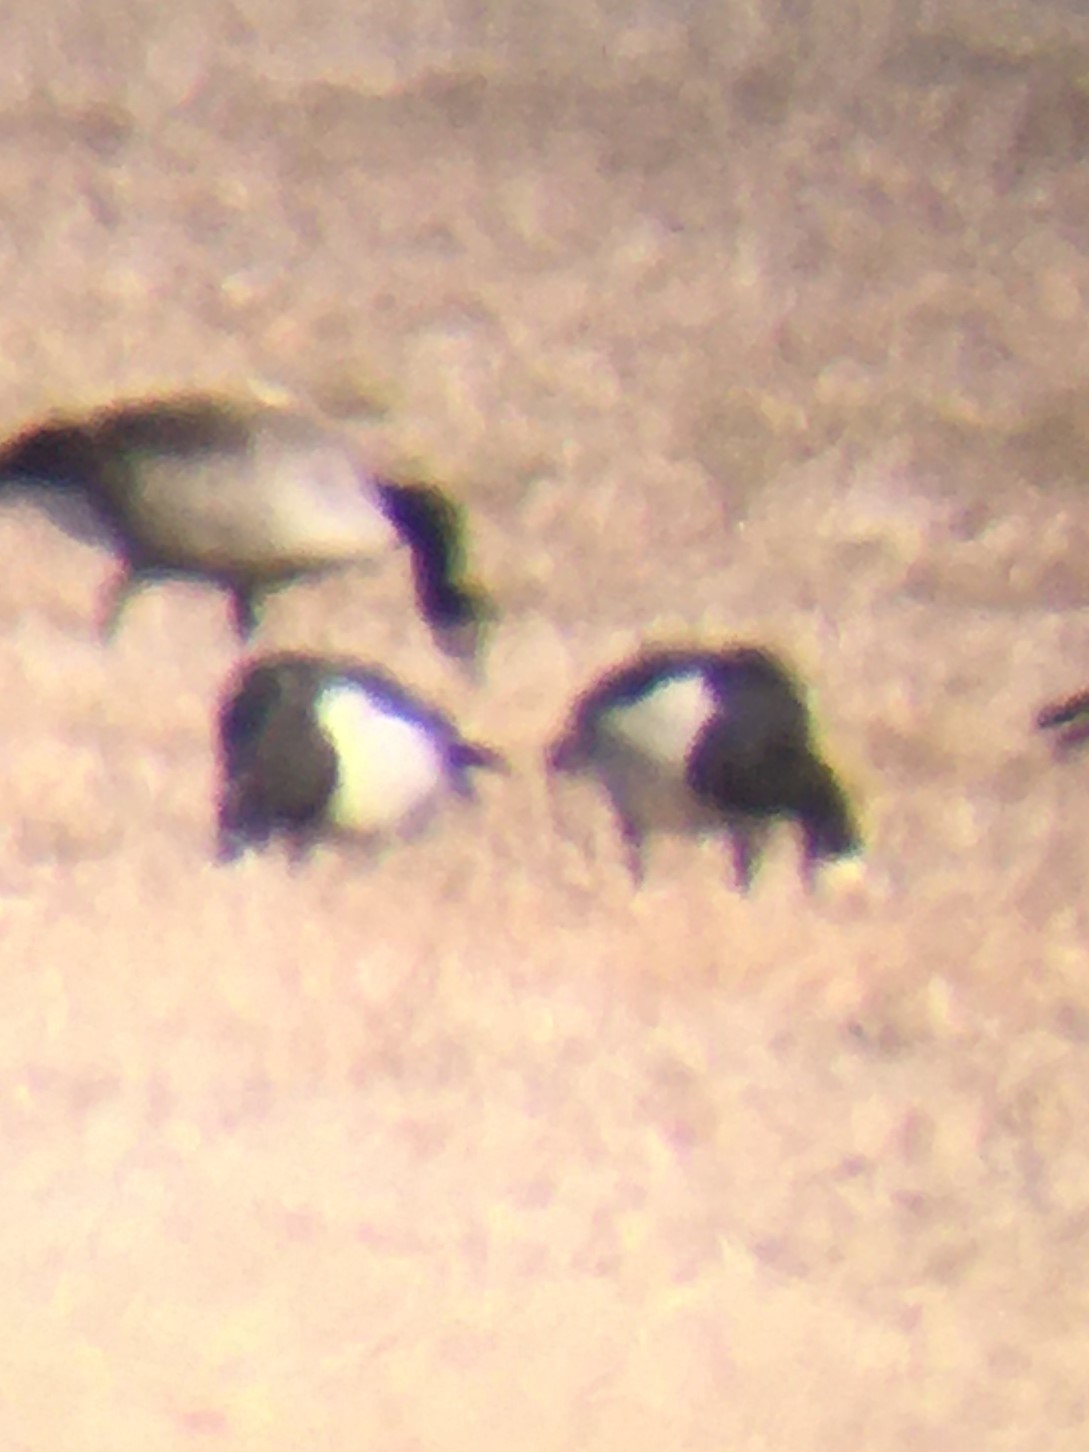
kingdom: Animalia
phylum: Chordata
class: Aves
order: Anseriformes
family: Anatidae
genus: Branta
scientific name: Branta leucopsis
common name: Barnacle goose
